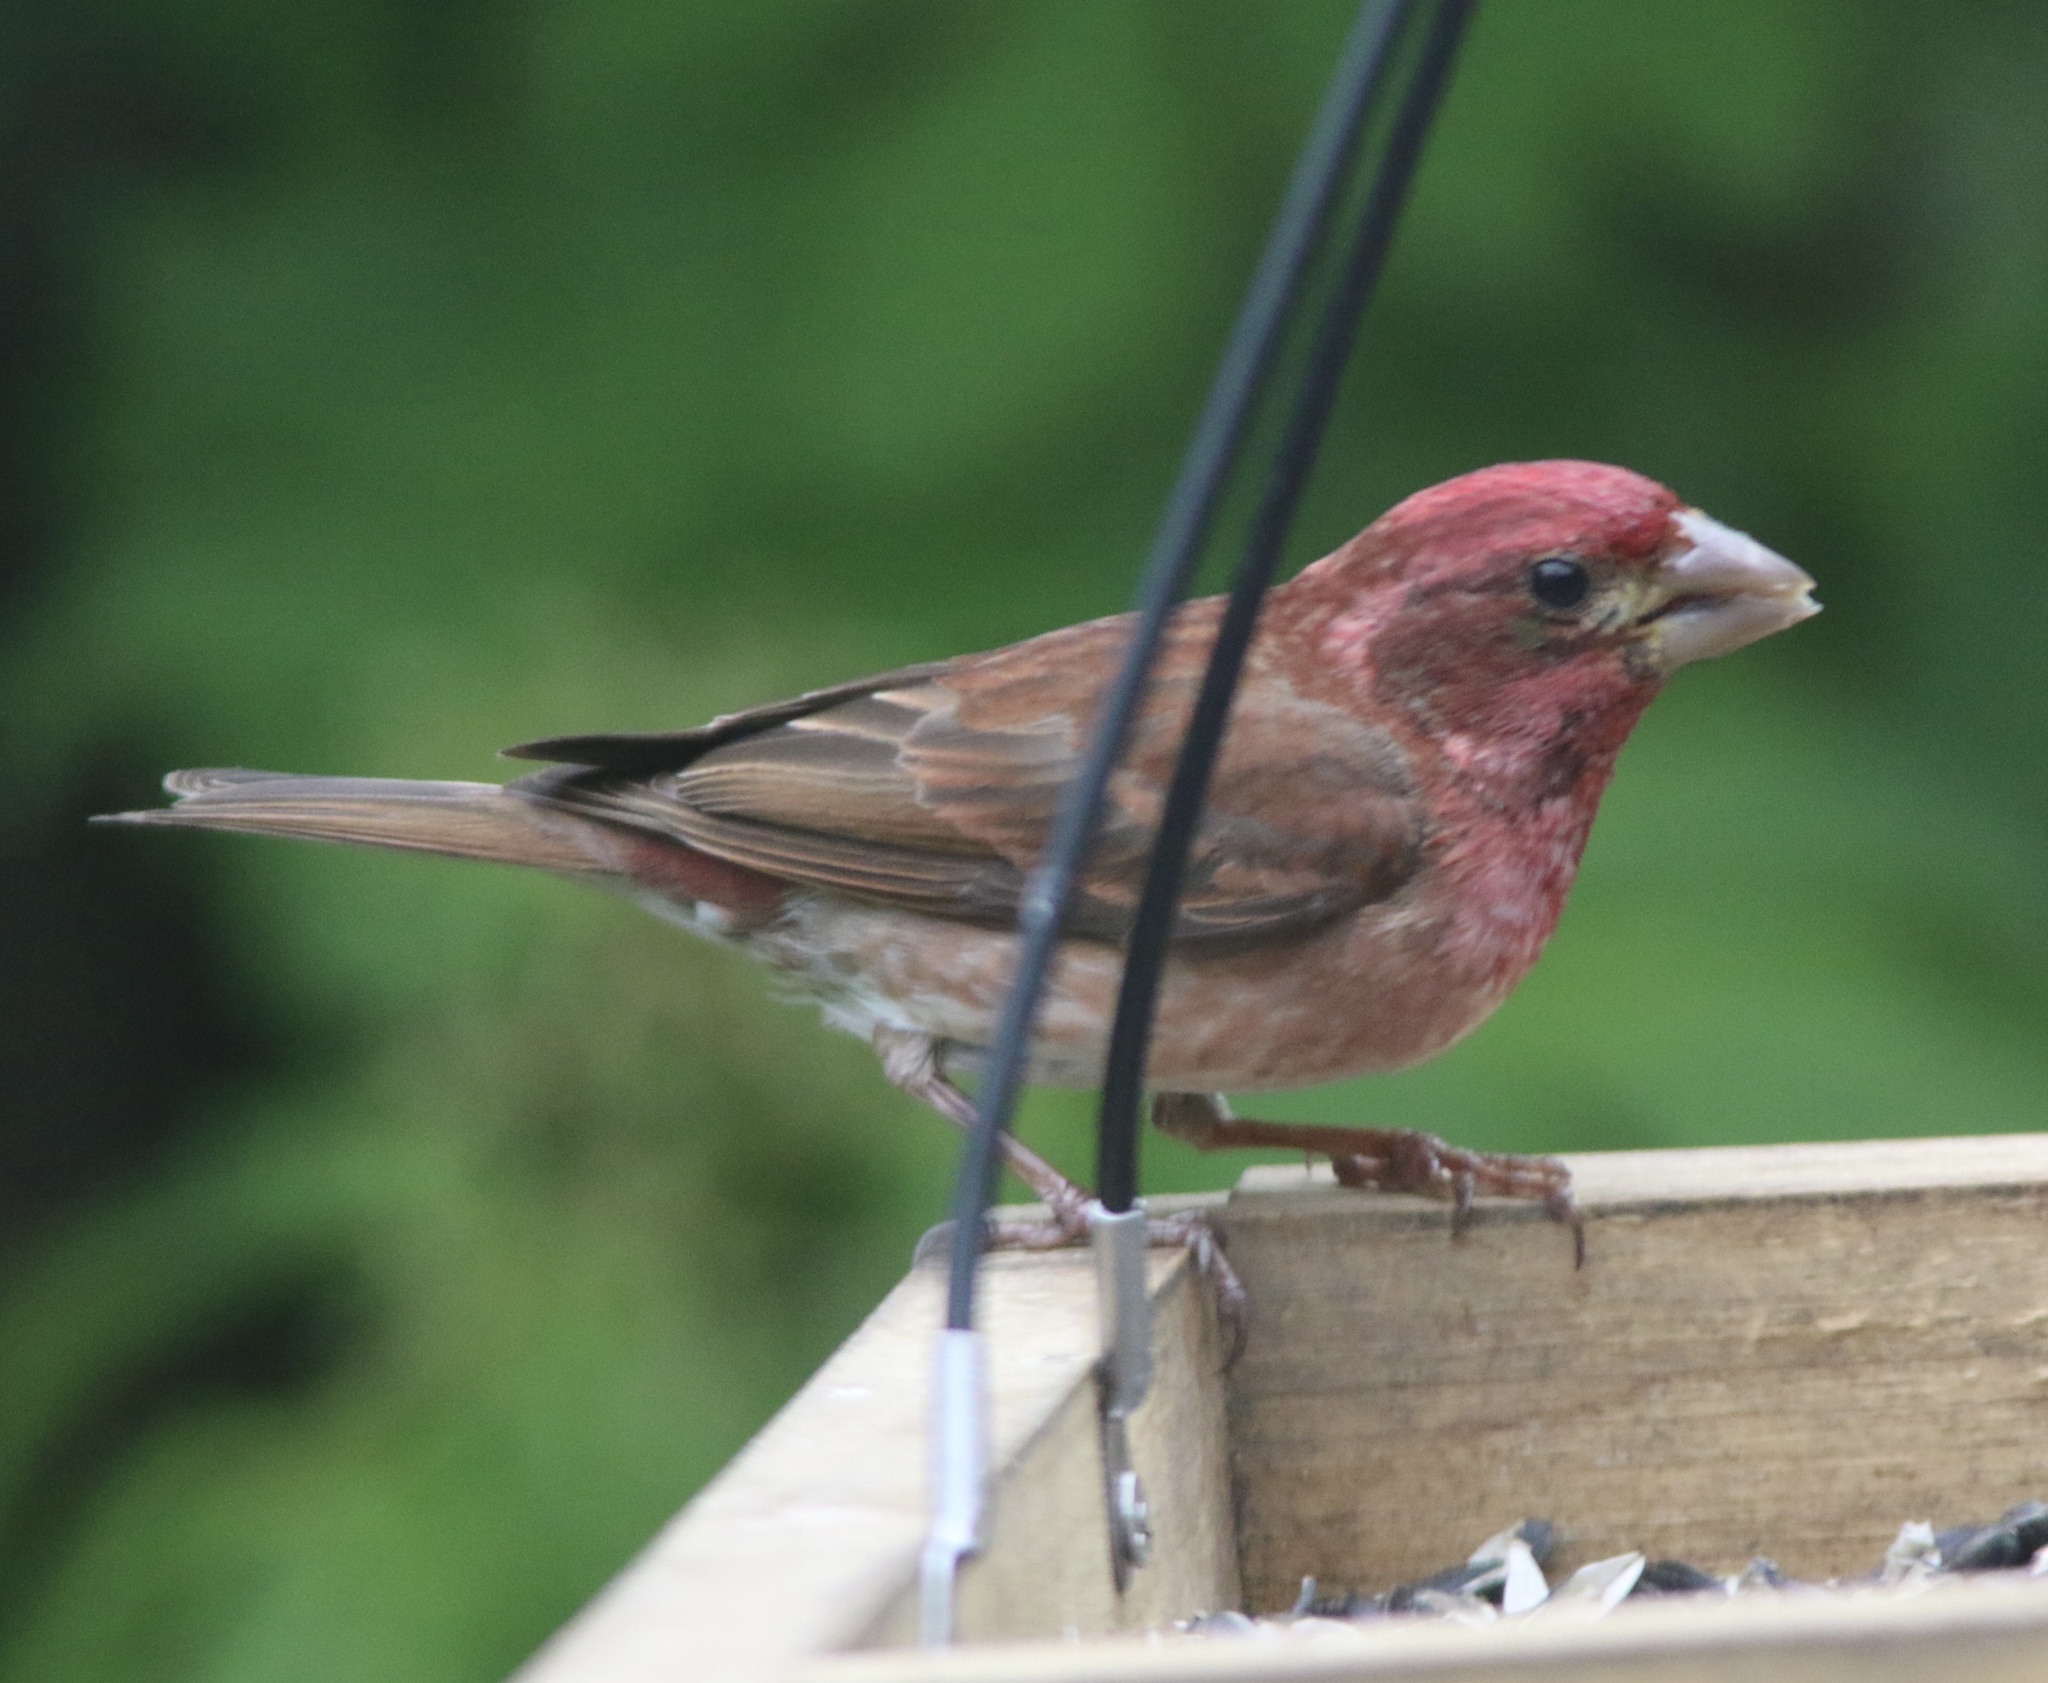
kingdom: Animalia
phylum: Chordata
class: Aves
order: Passeriformes
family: Fringillidae
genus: Haemorhous
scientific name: Haemorhous purpureus
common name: Purple finch
